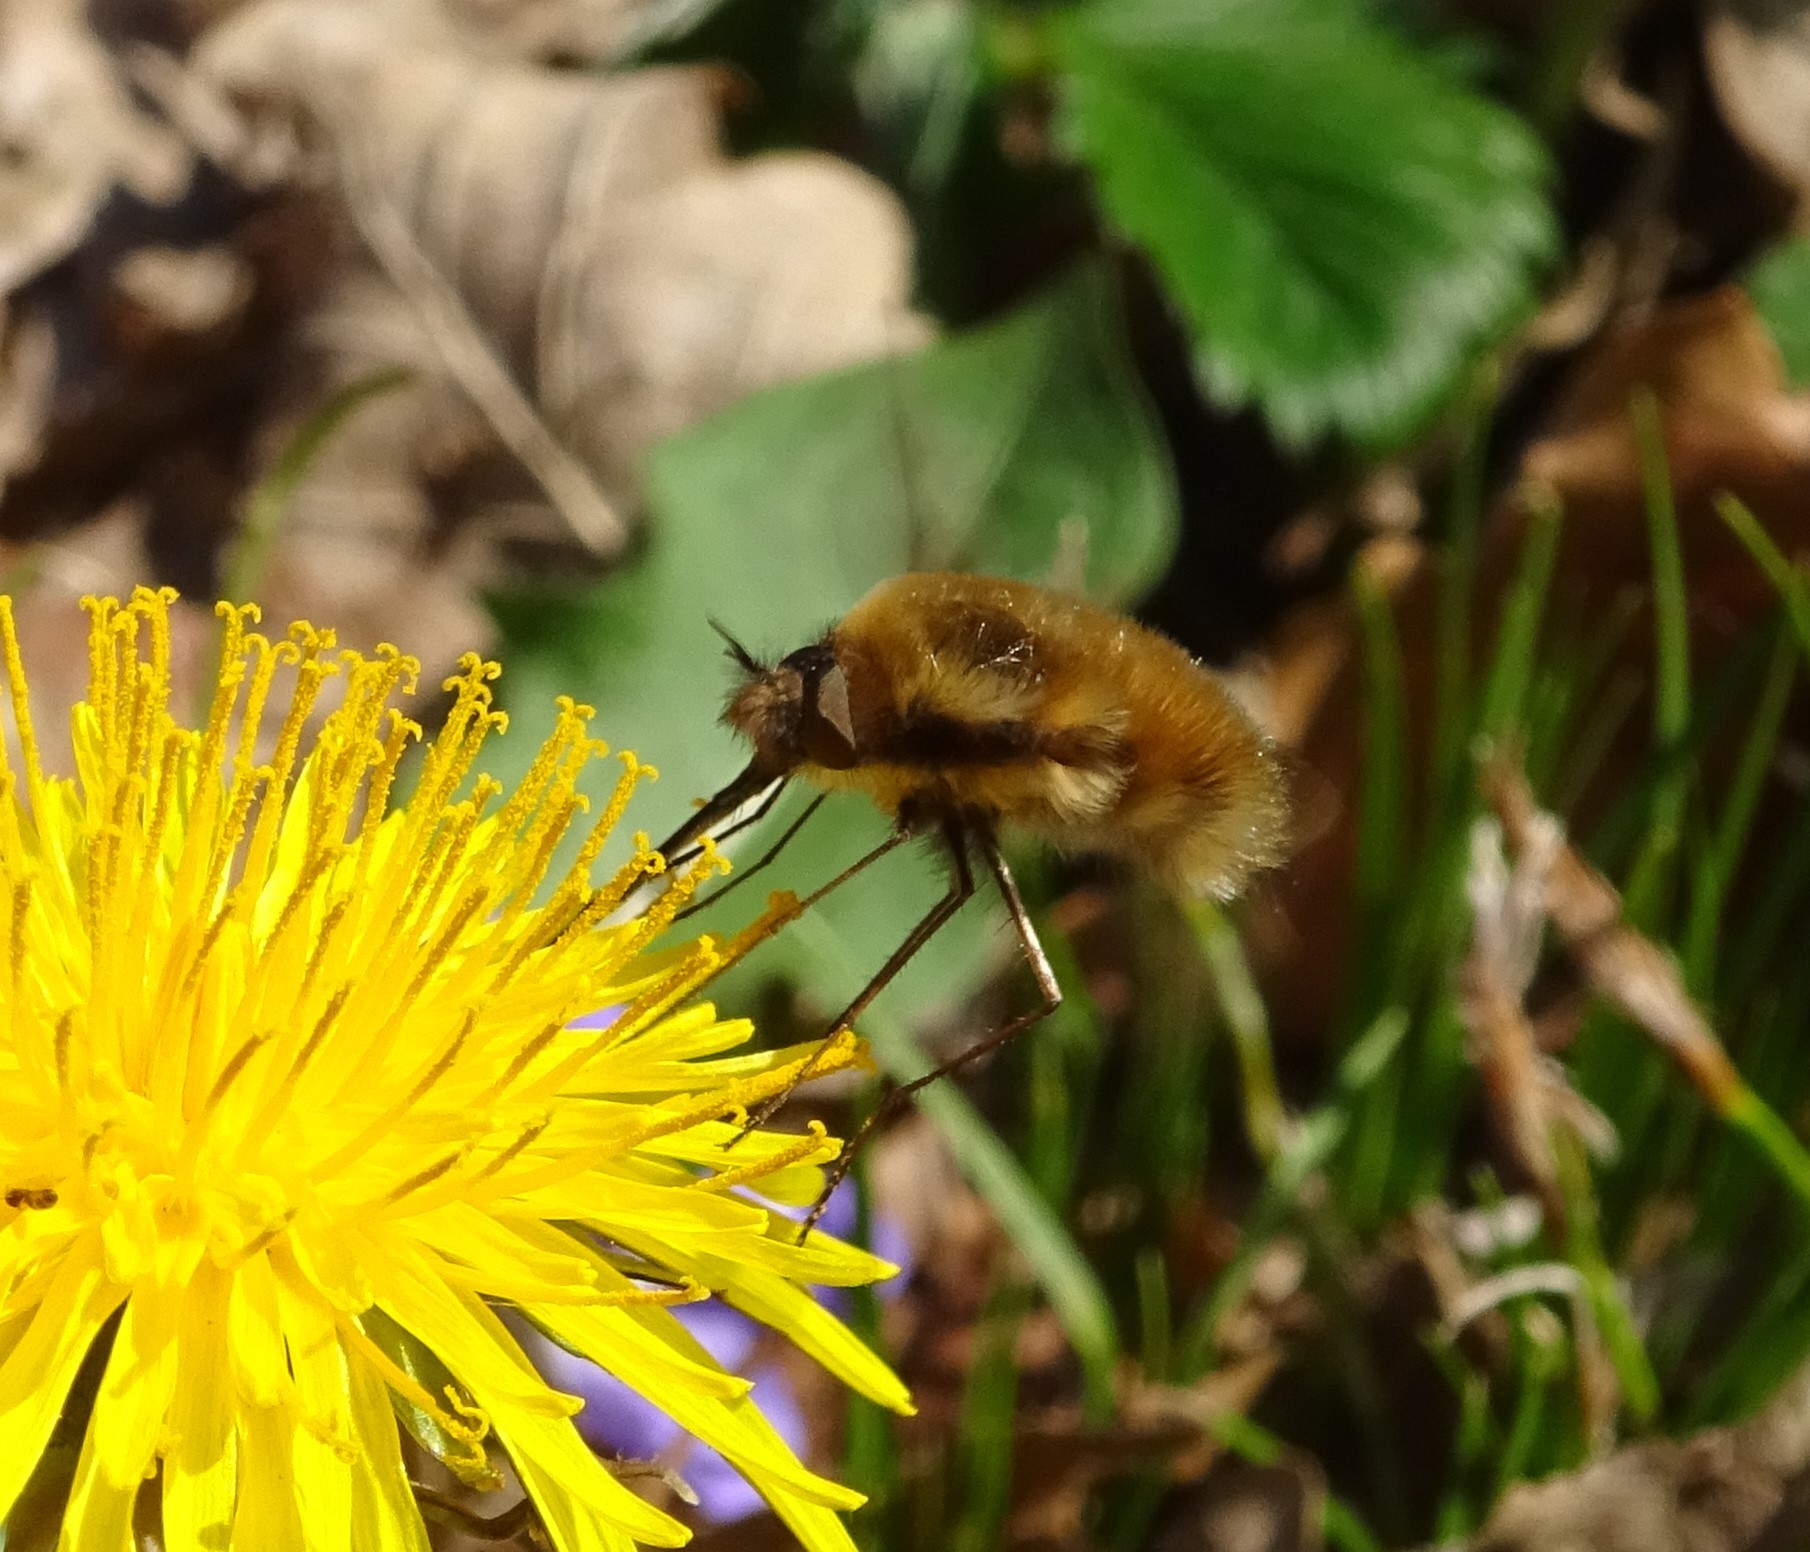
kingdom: Animalia
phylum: Arthropoda
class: Insecta
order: Diptera
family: Bombyliidae
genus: Bombylius
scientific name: Bombylius major
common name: Bee fly
